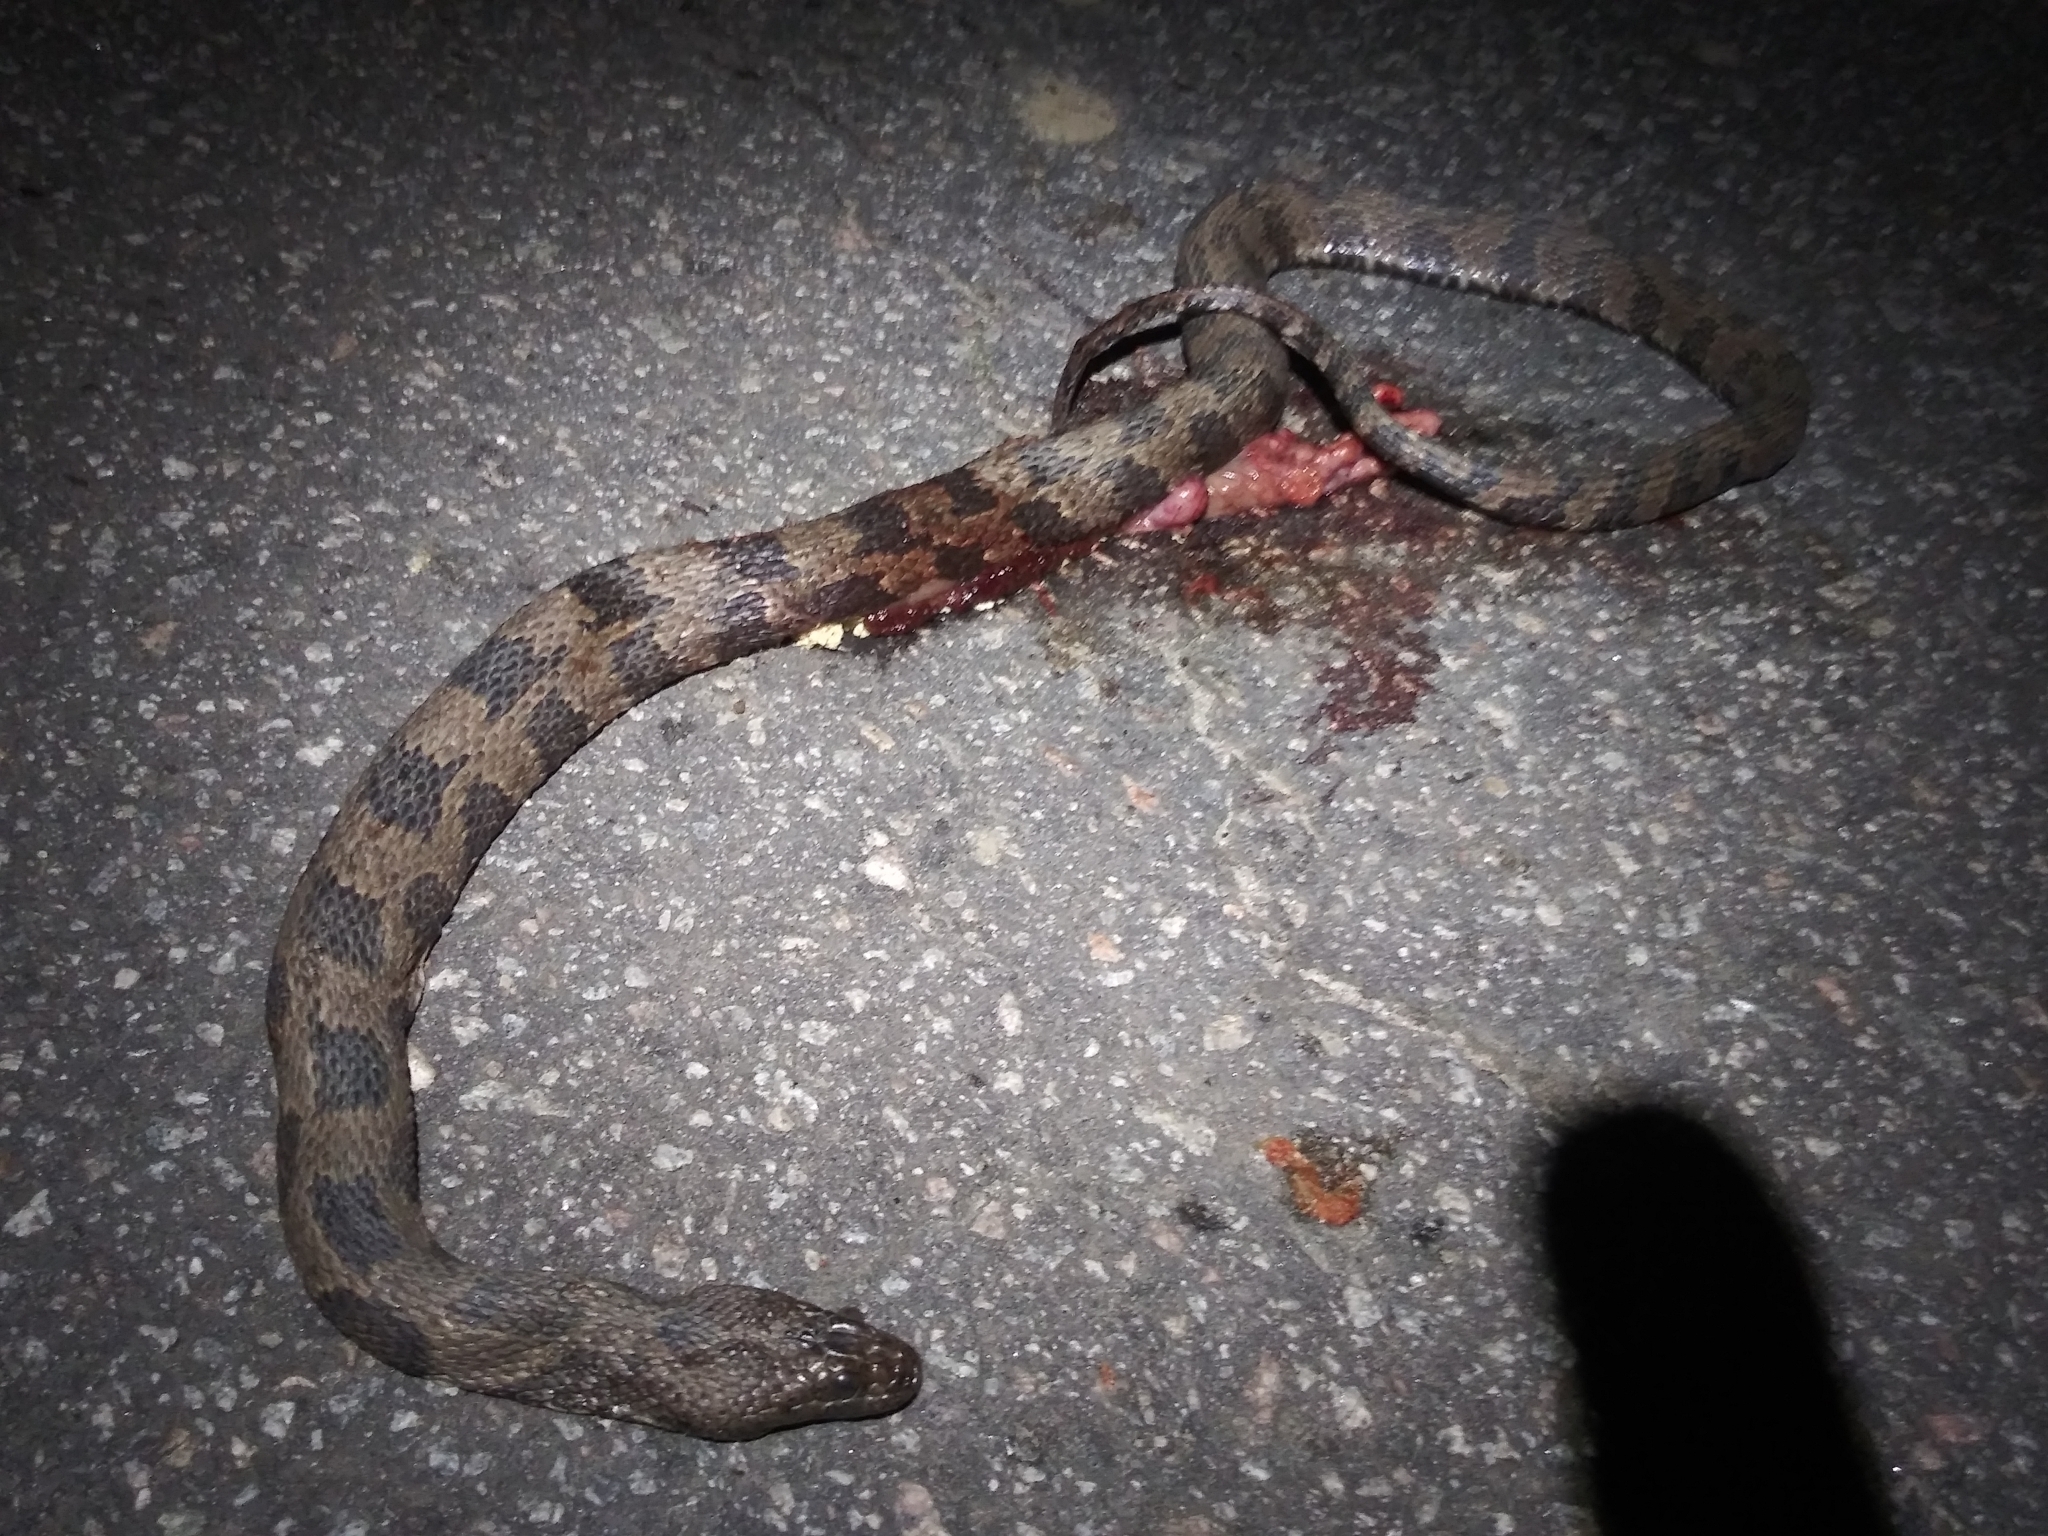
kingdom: Animalia
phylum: Chordata
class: Squamata
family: Colubridae
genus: Nerodia
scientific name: Nerodia taxispilota
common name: Brown water snake
